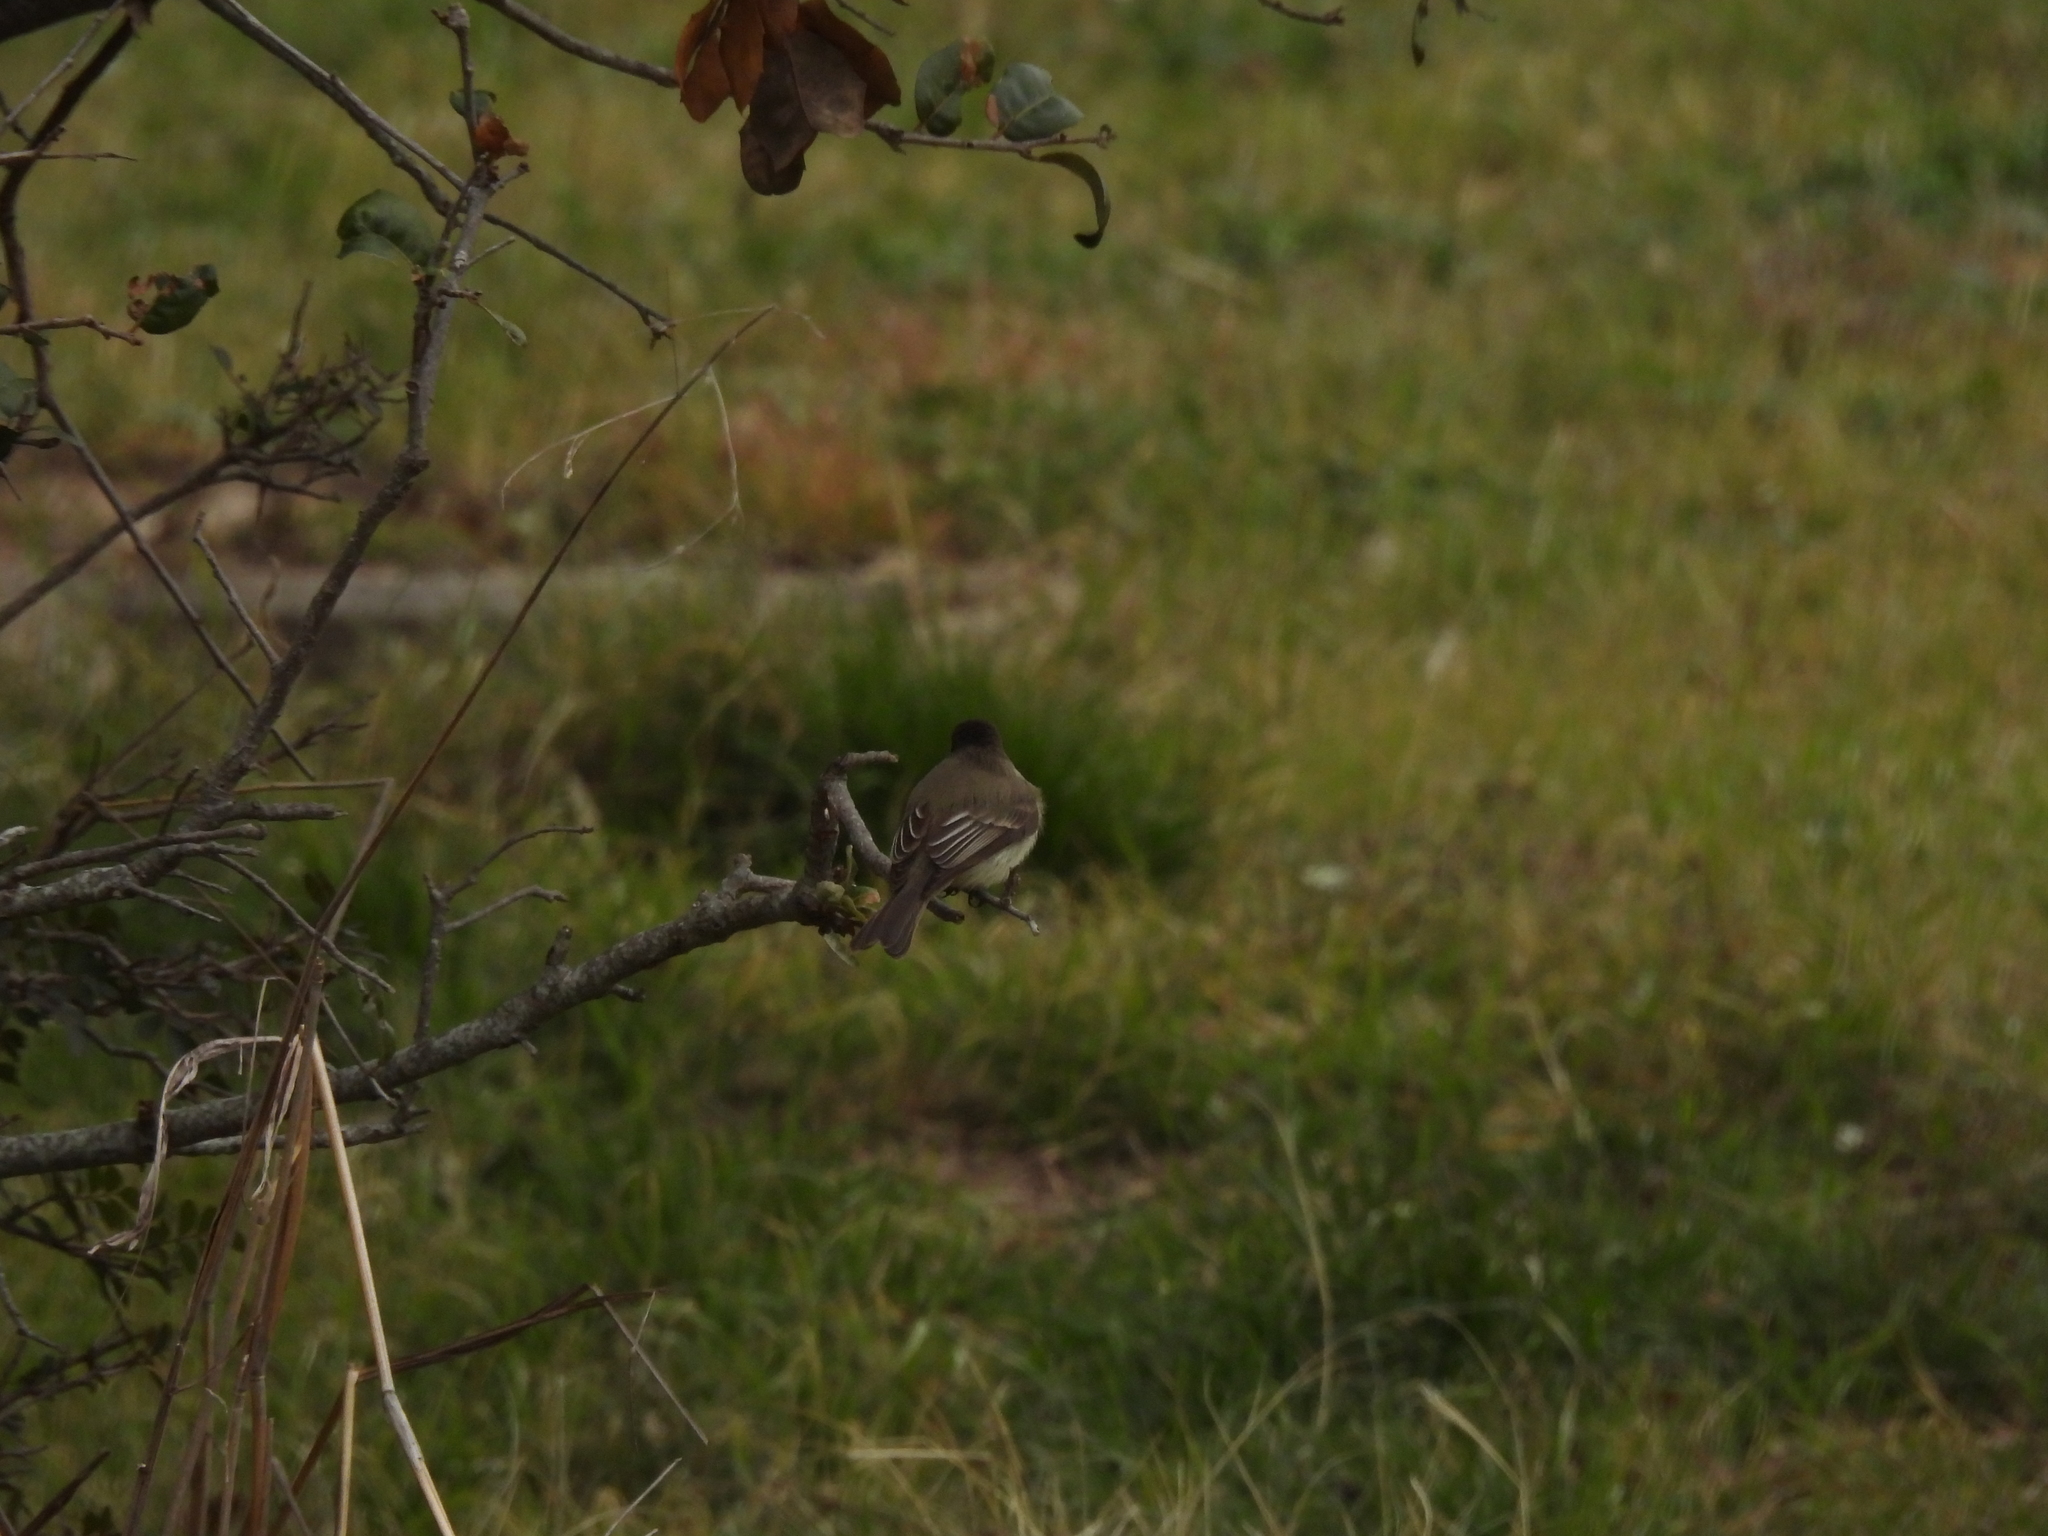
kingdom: Animalia
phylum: Chordata
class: Aves
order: Passeriformes
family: Tyrannidae
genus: Sayornis
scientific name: Sayornis phoebe
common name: Eastern phoebe
